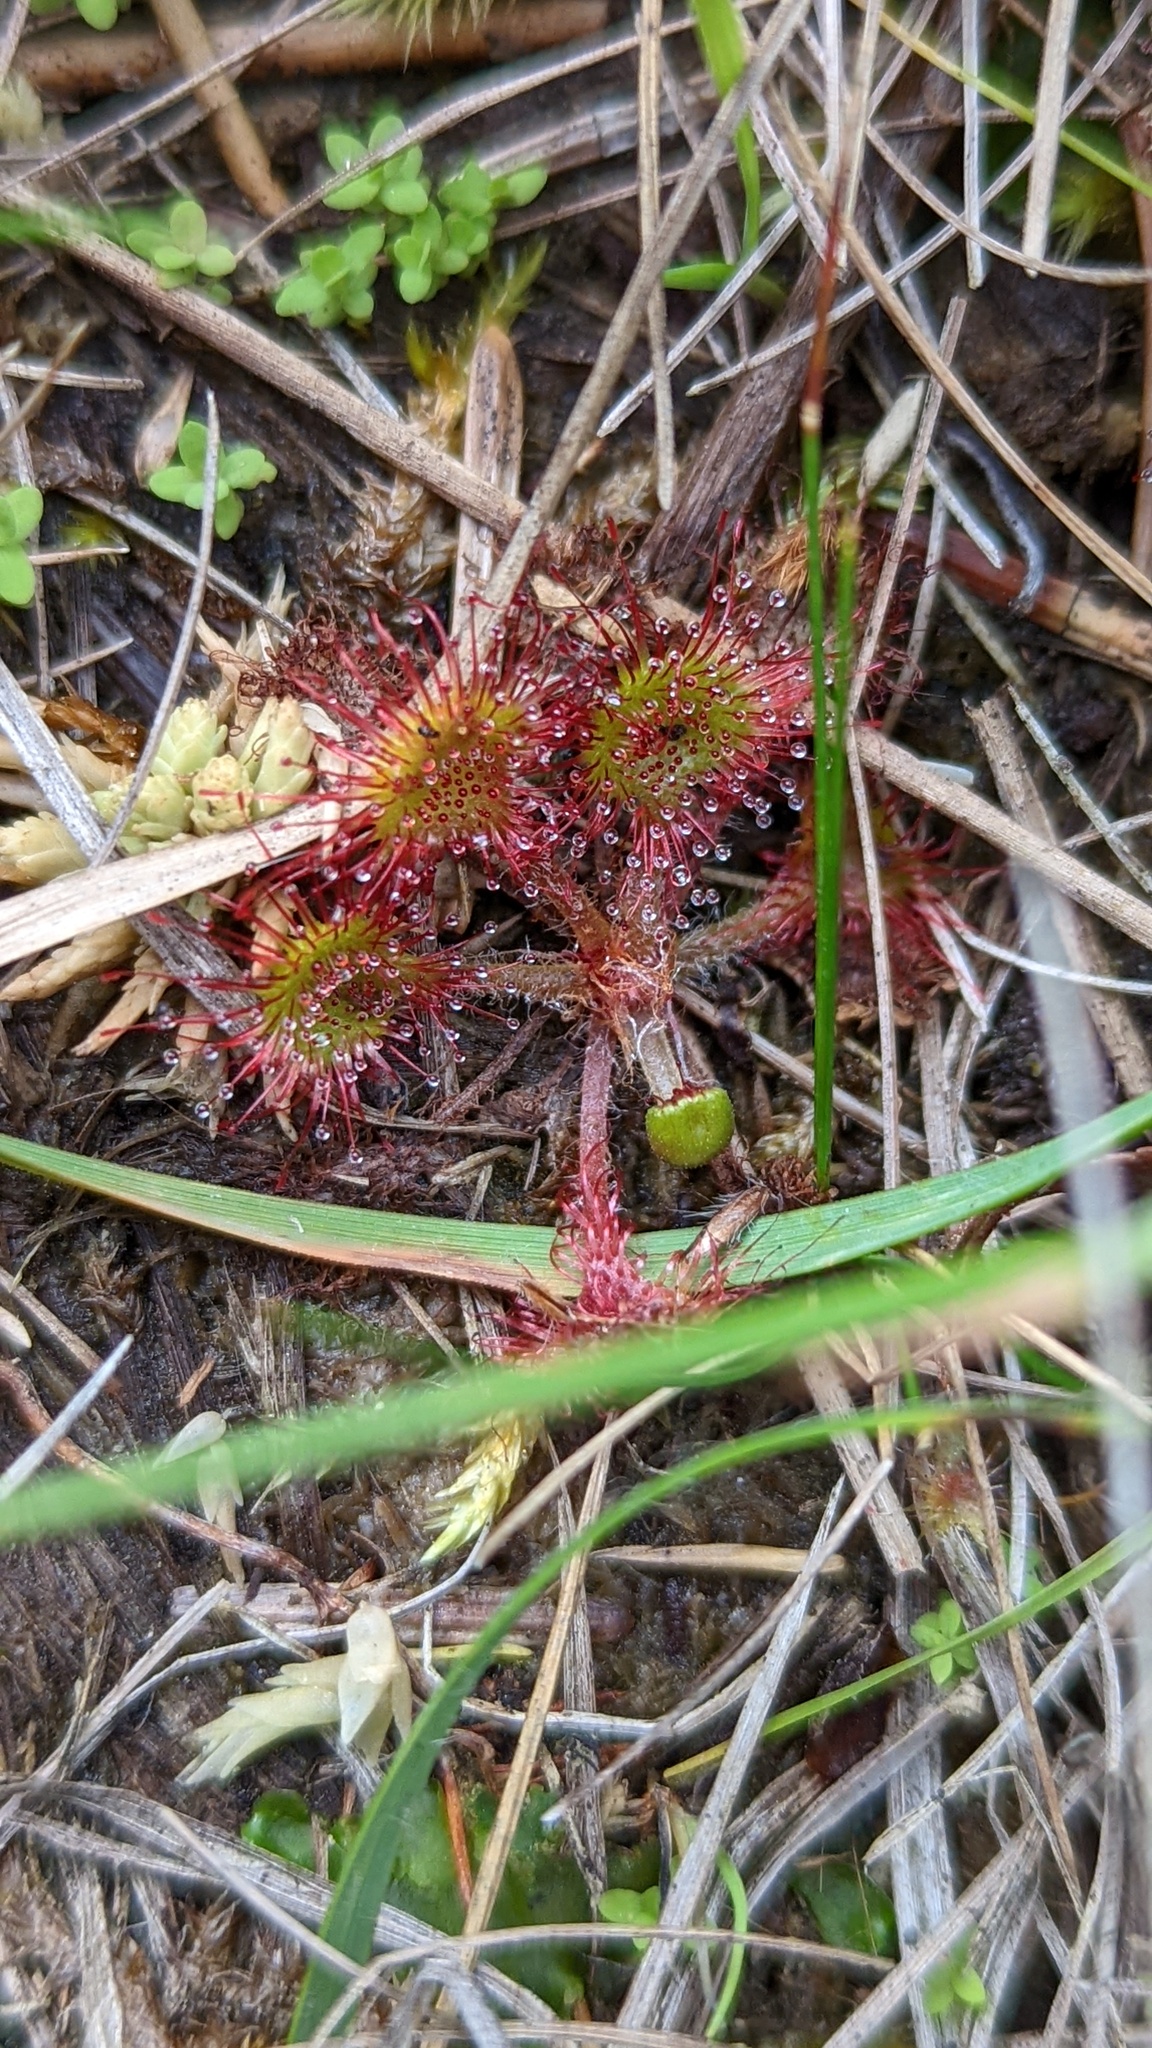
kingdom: Plantae
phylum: Tracheophyta
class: Magnoliopsida
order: Caryophyllales
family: Droseraceae
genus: Drosera
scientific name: Drosera rotundifolia
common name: Round-leaved sundew
